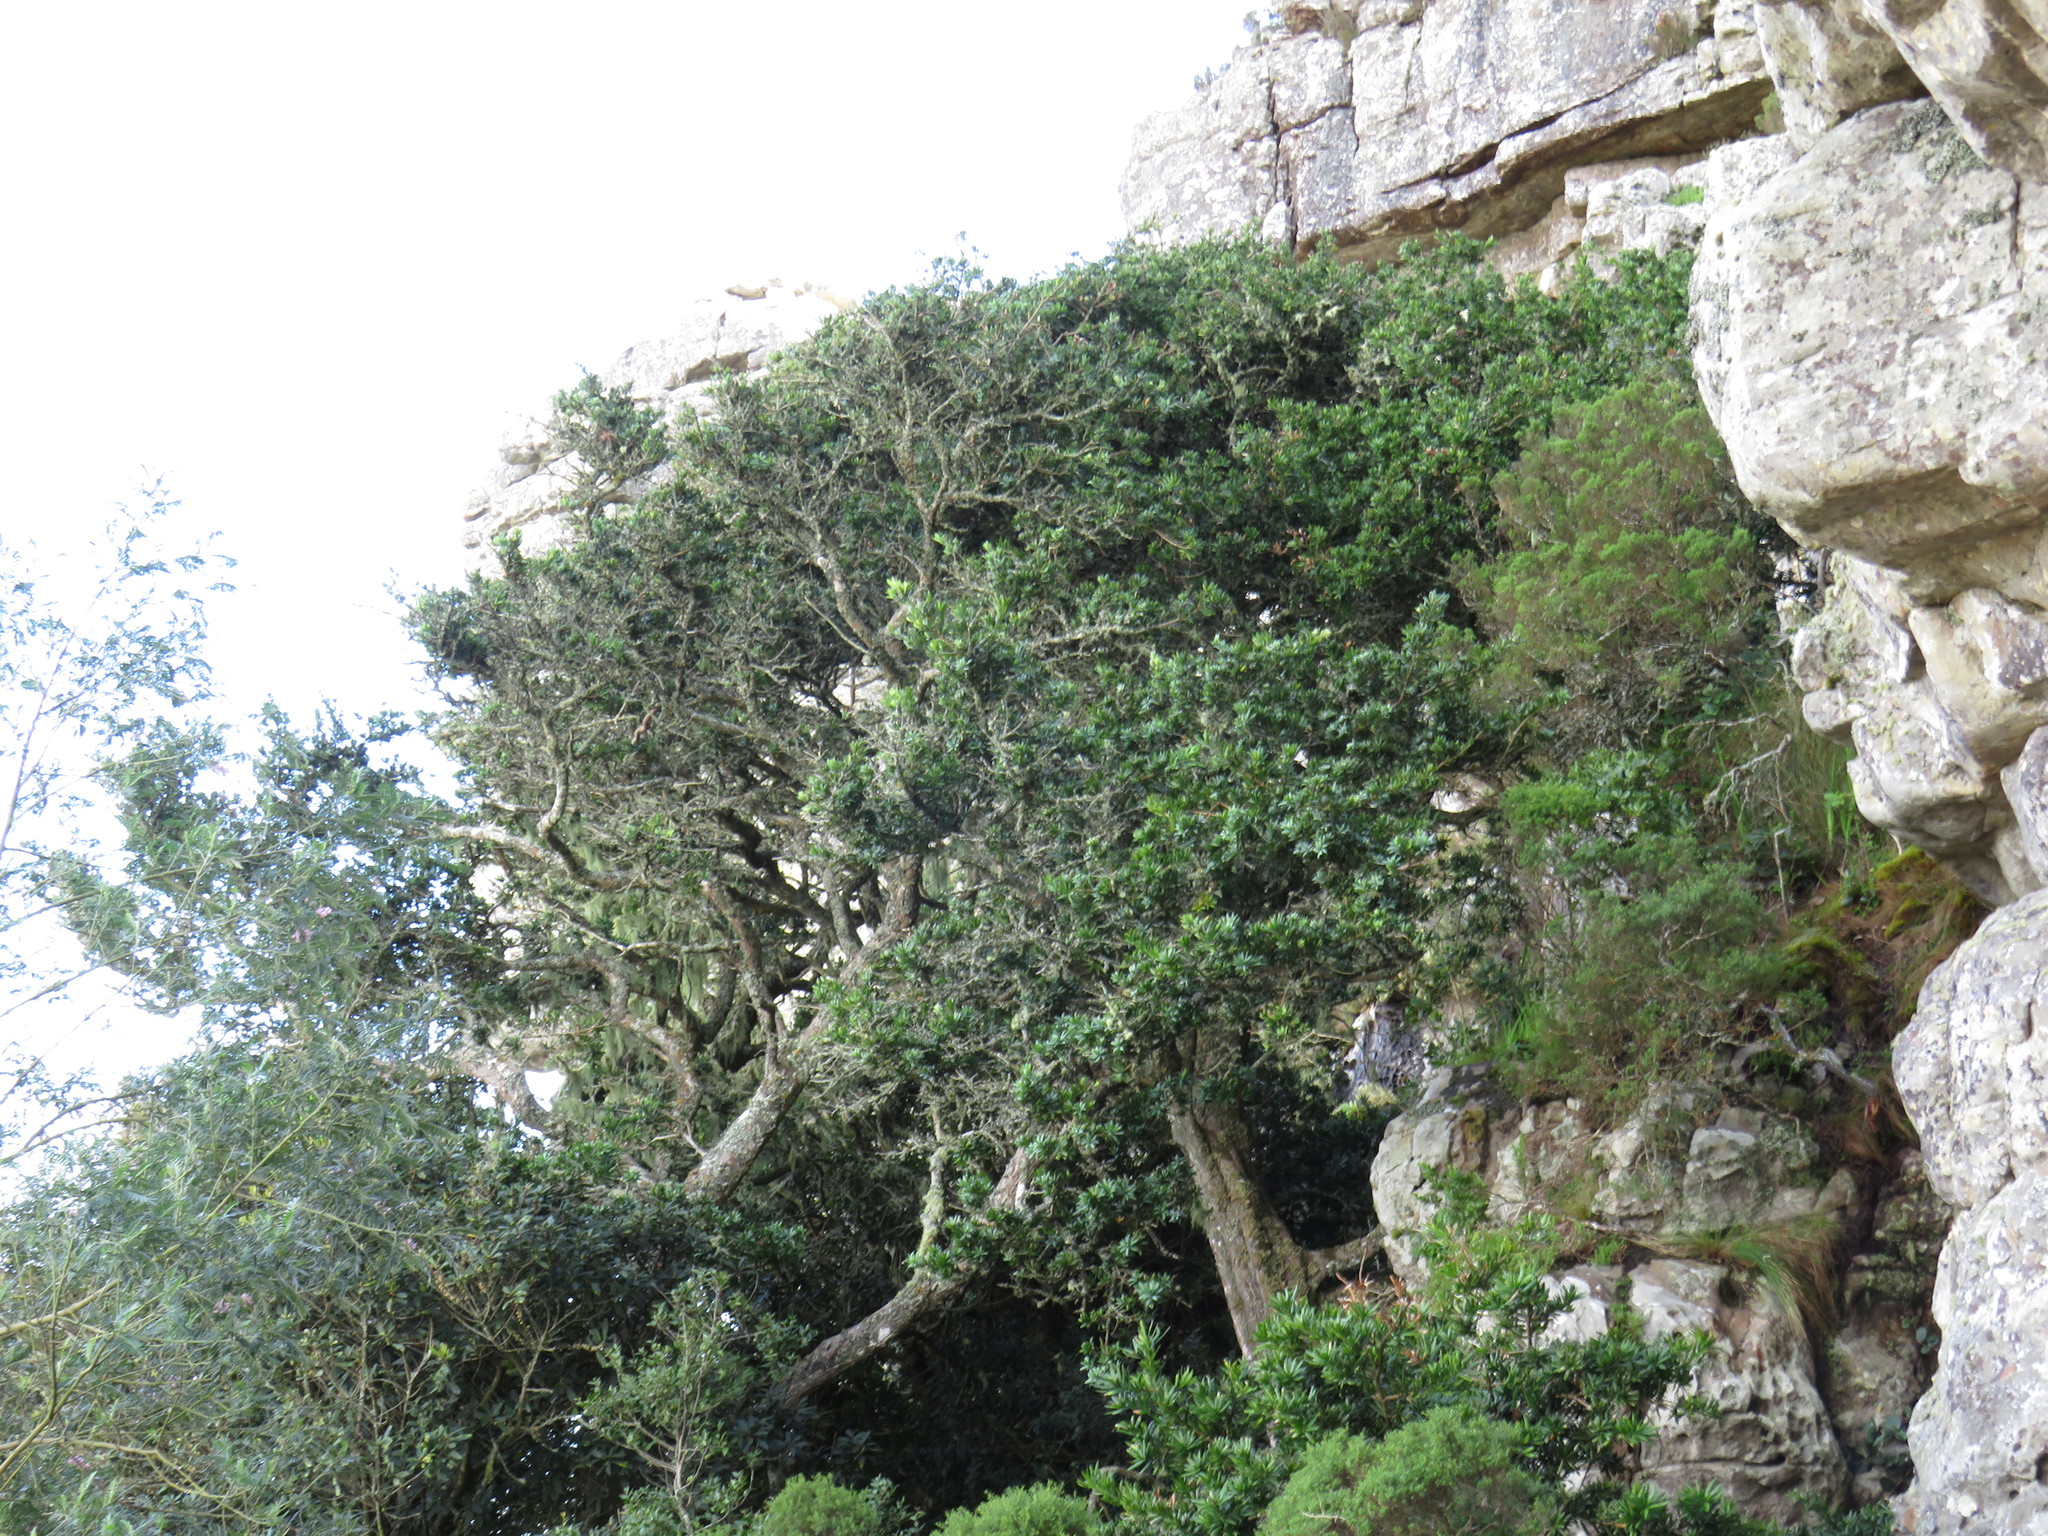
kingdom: Plantae
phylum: Tracheophyta
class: Pinopsida
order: Pinales
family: Podocarpaceae
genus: Podocarpus
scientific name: Podocarpus latifolius
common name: True yellowwood
